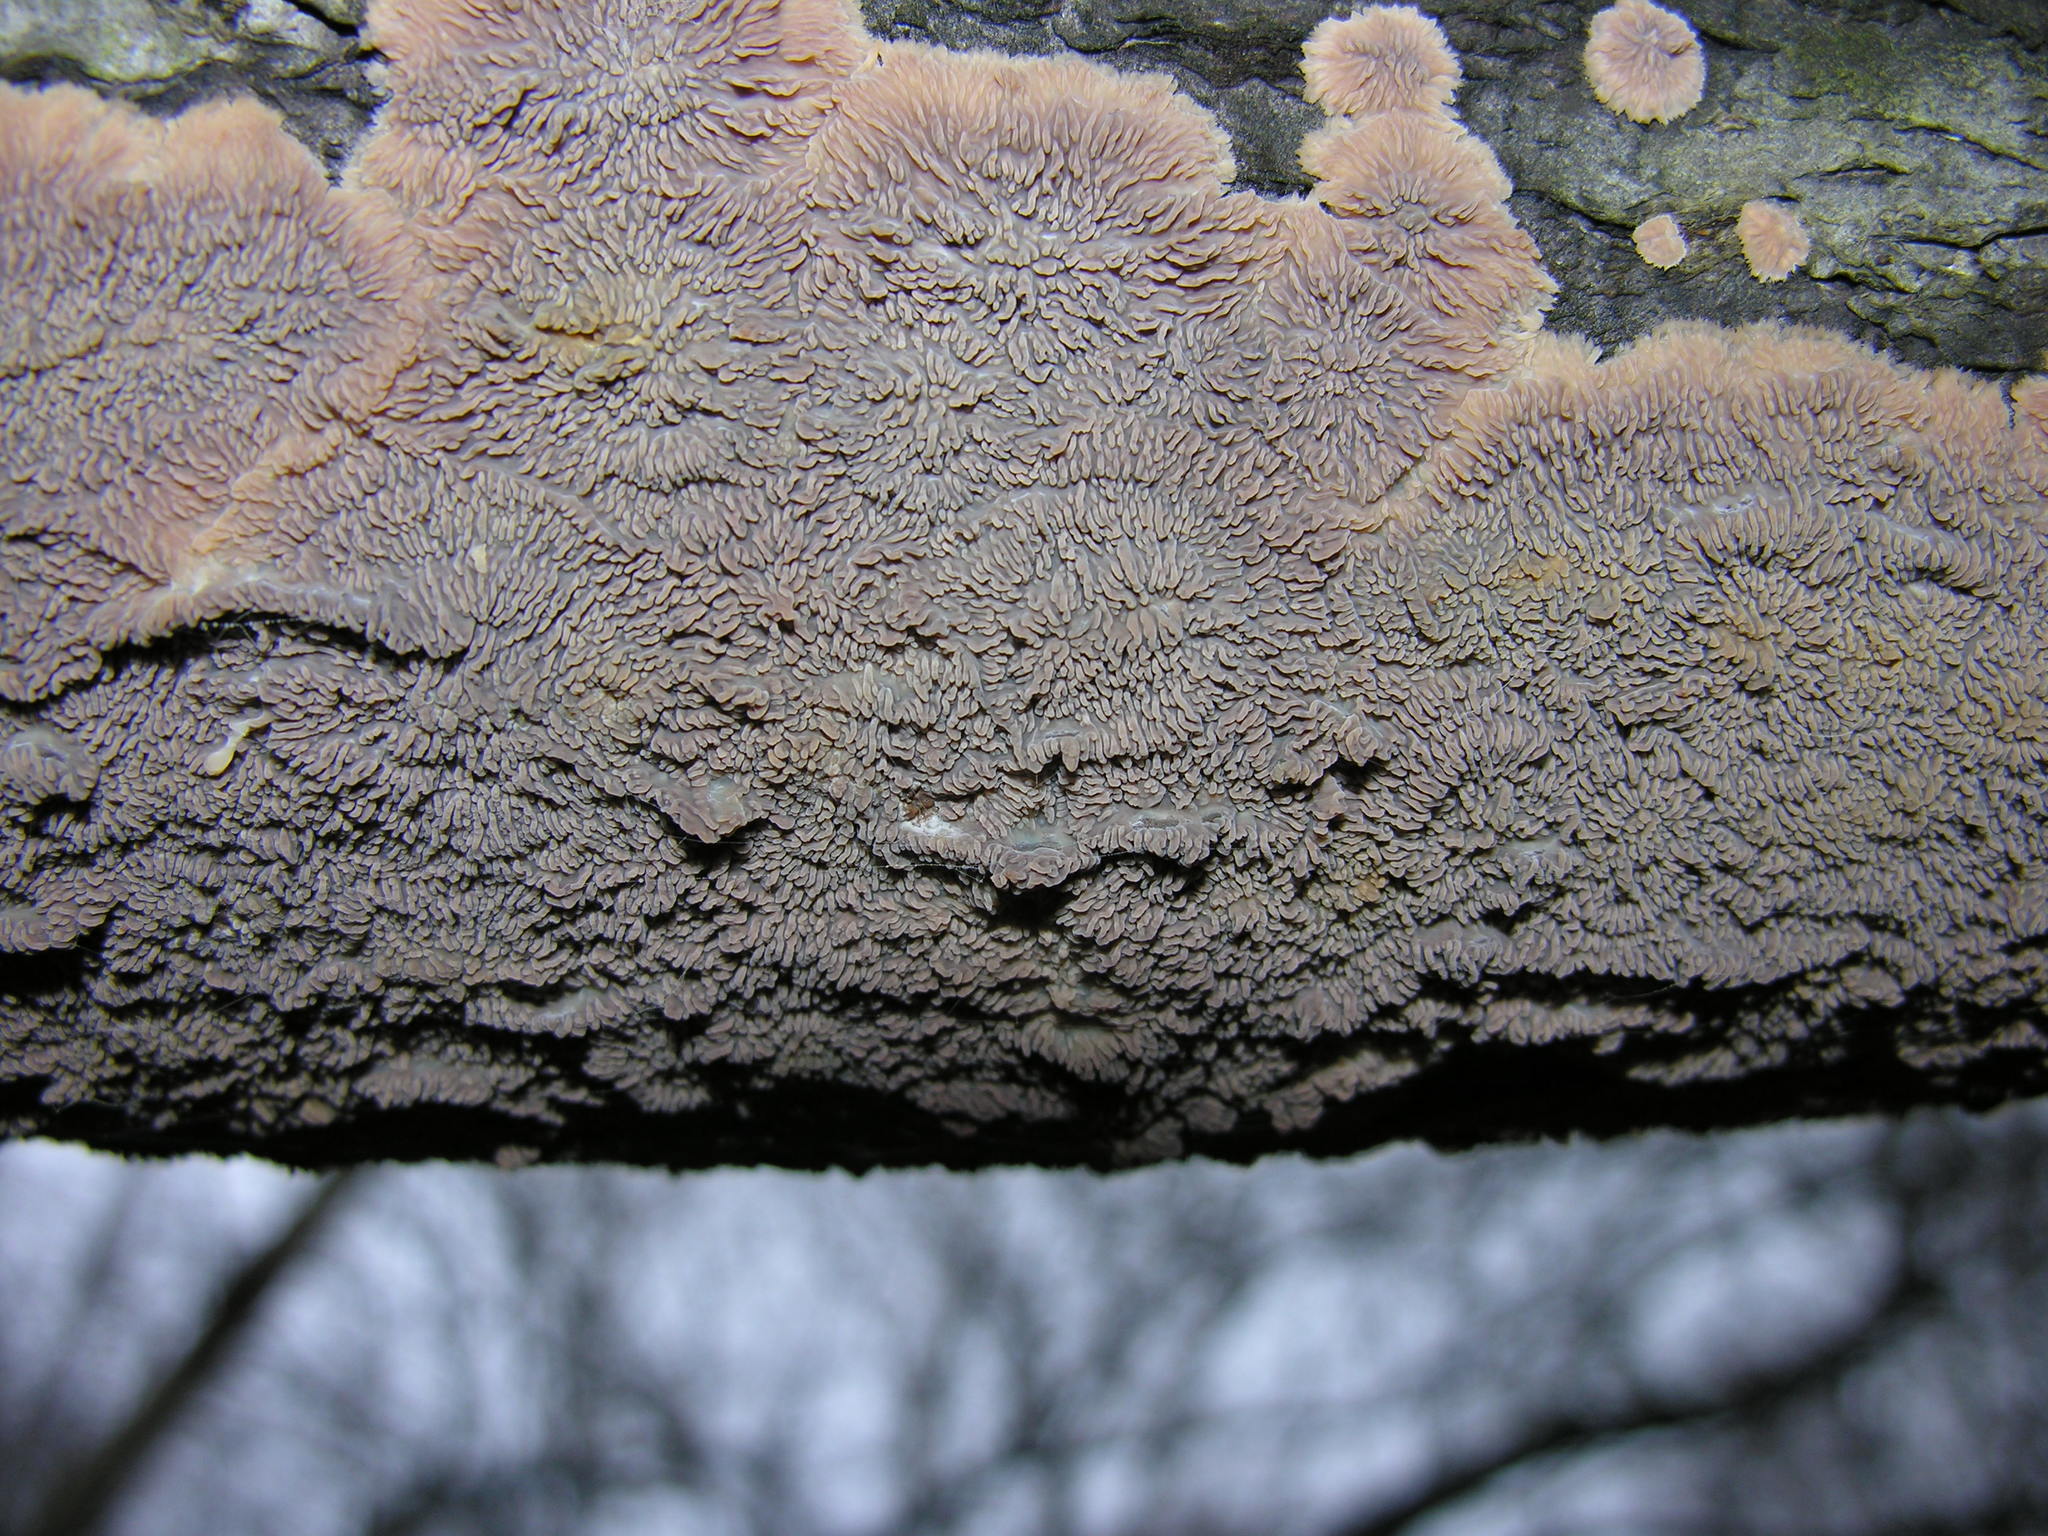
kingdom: Fungi
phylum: Basidiomycota
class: Agaricomycetes
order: Polyporales
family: Meruliaceae
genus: Phlebia
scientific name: Phlebia acerina
